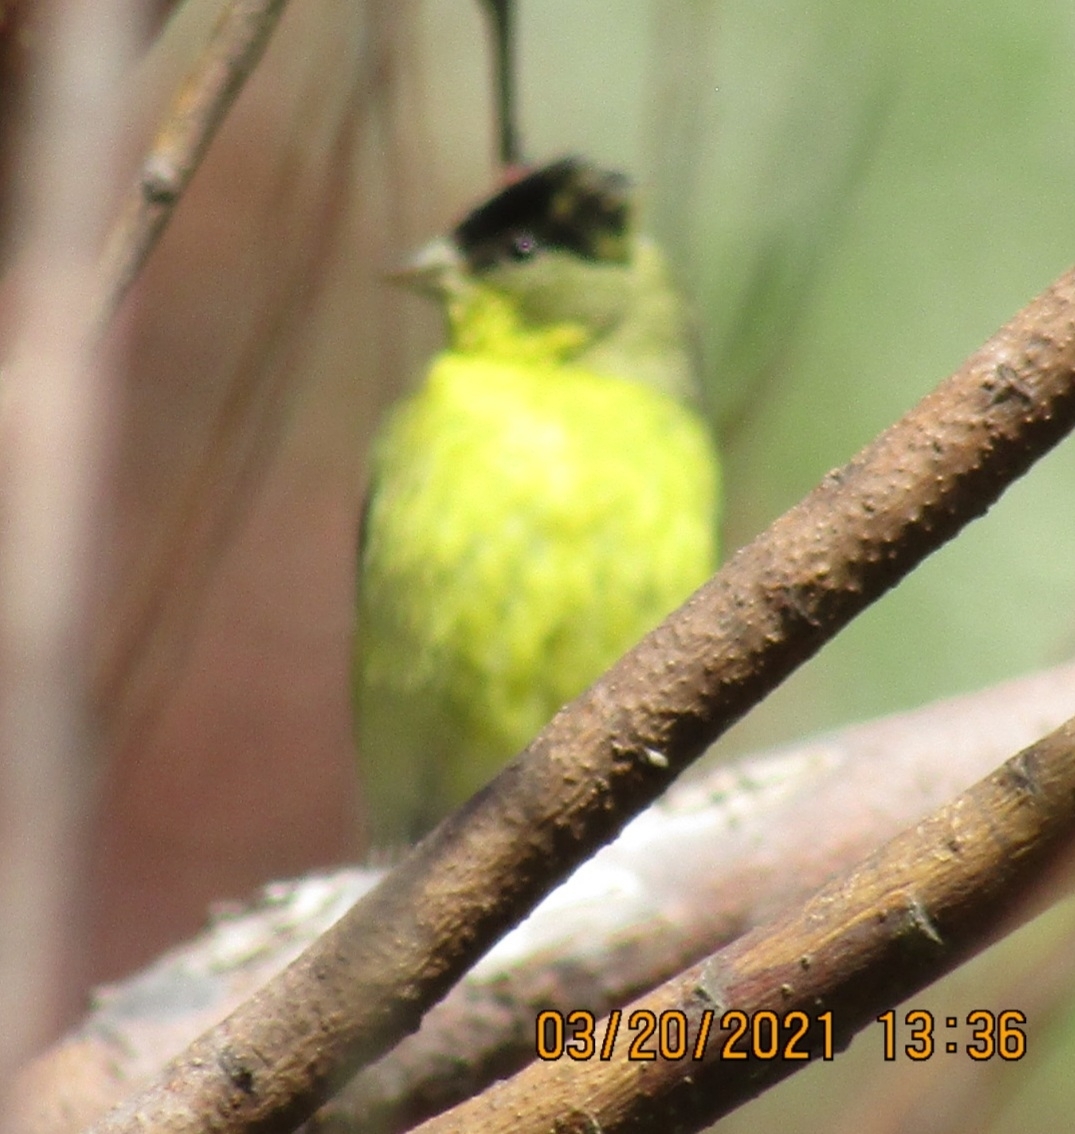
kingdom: Animalia
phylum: Chordata
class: Aves
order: Passeriformes
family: Fringillidae
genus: Spinus
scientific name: Spinus psaltria
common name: Lesser goldfinch
